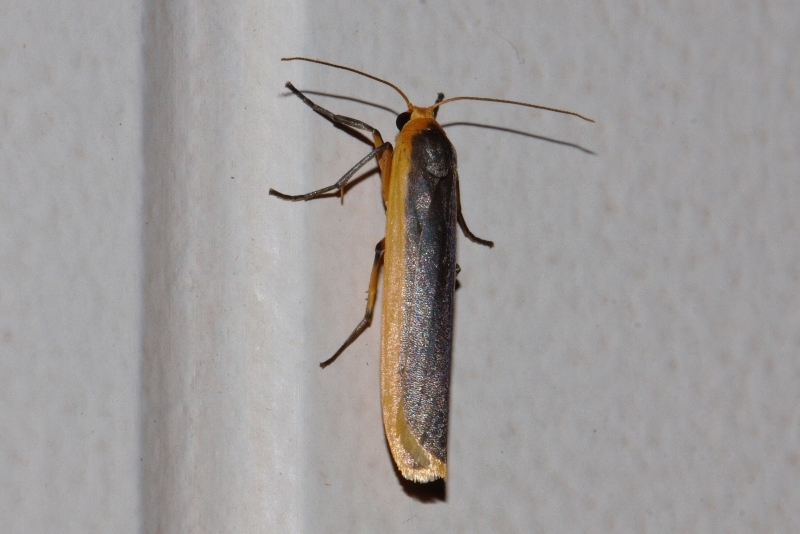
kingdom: Animalia
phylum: Arthropoda
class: Insecta
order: Lepidoptera
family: Erebidae
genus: Sozusa
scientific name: Sozusa scutellata
